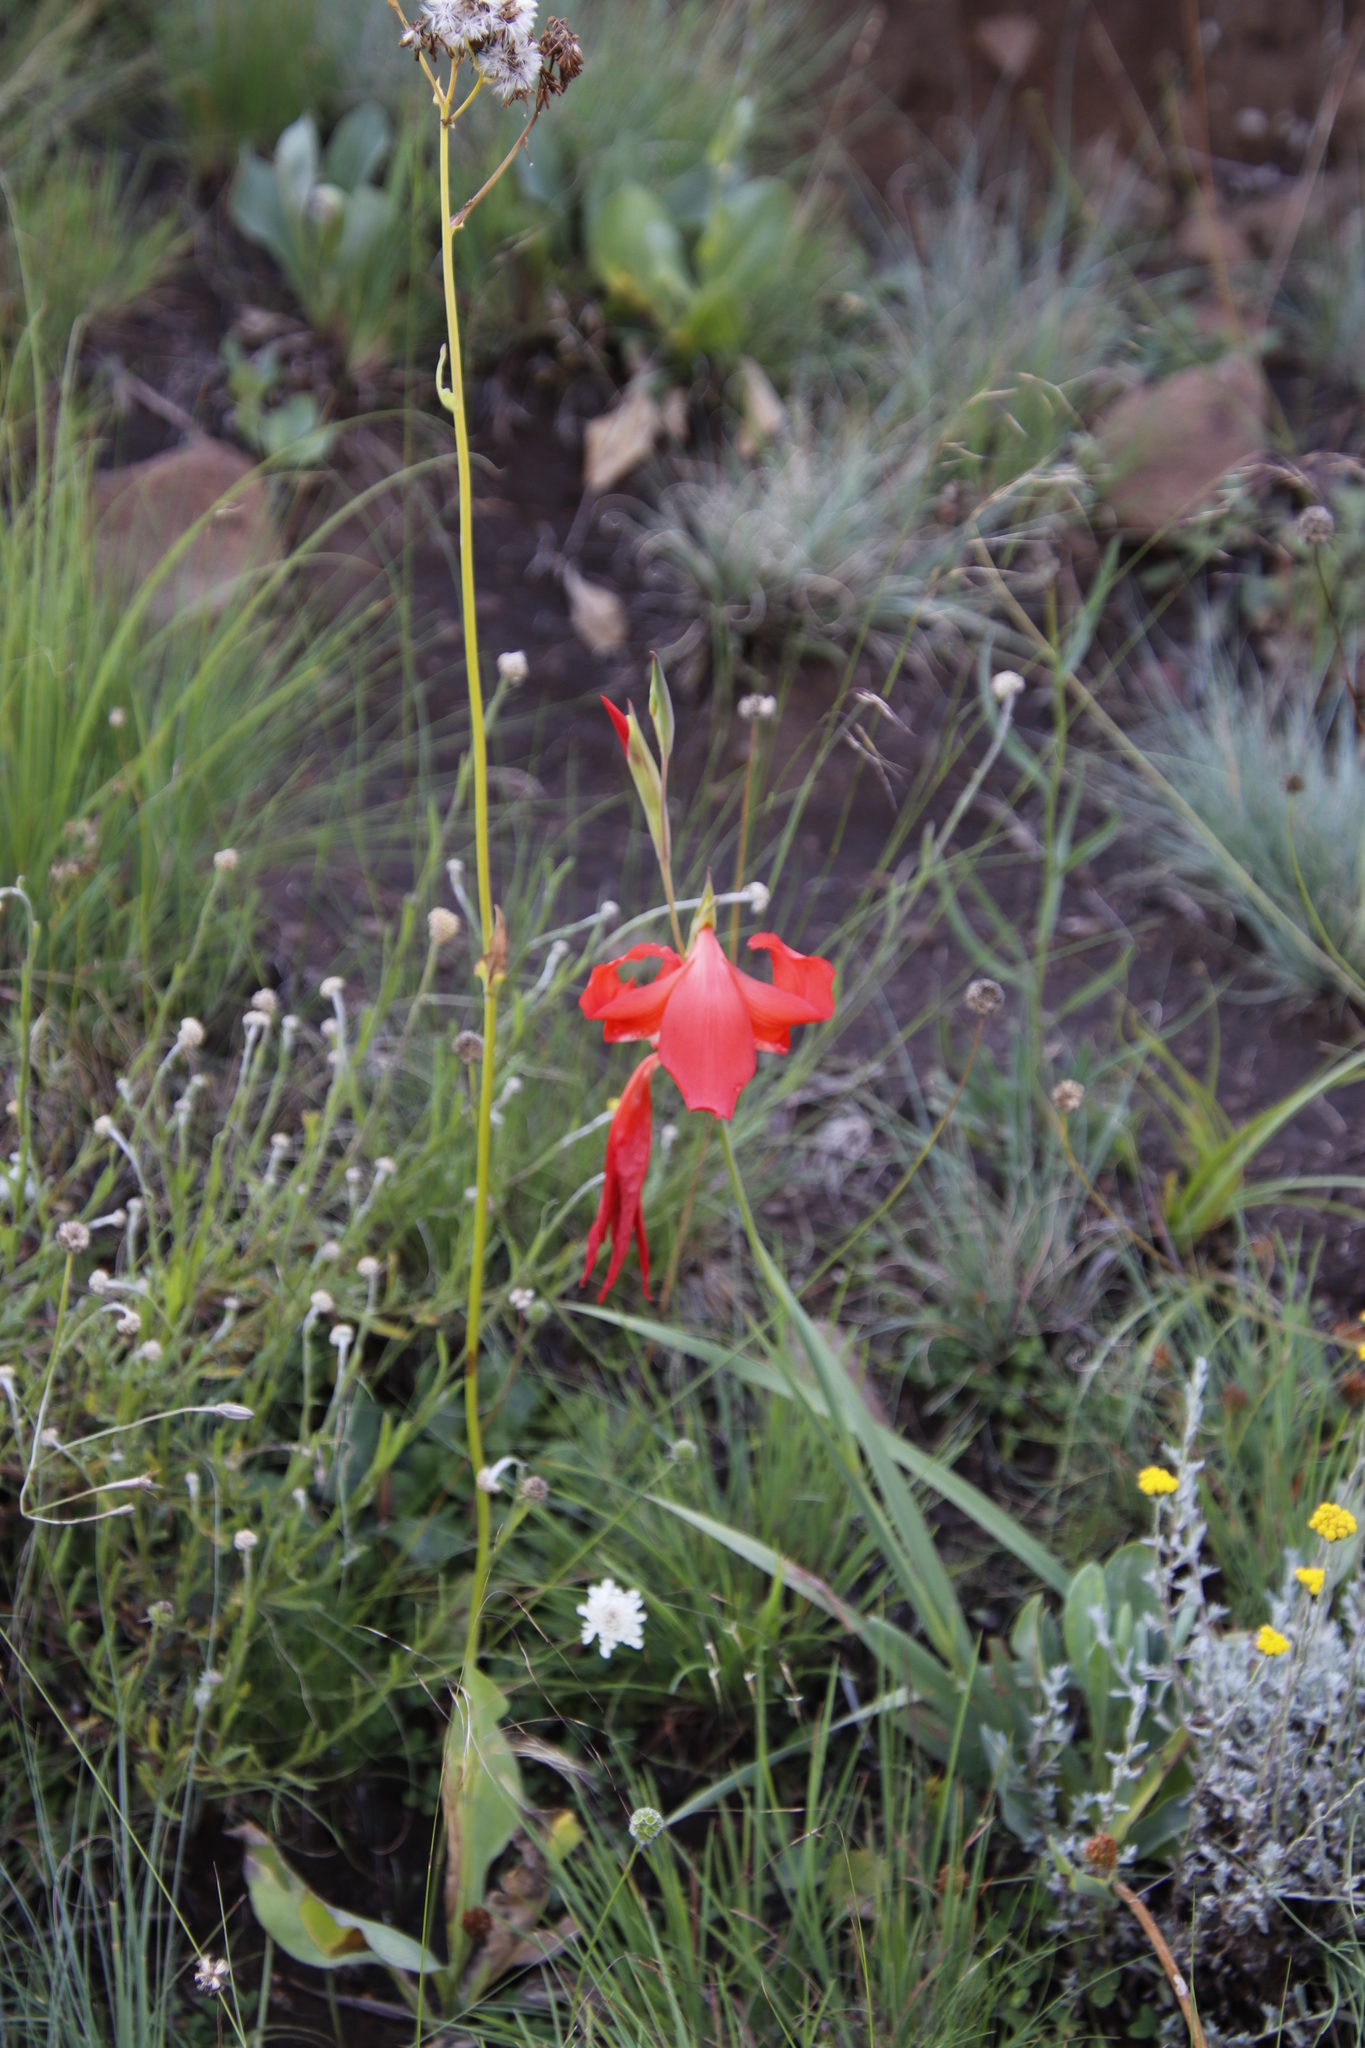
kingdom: Plantae
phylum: Tracheophyta
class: Liliopsida
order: Asparagales
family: Iridaceae
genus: Gladiolus
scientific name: Gladiolus saundersii
